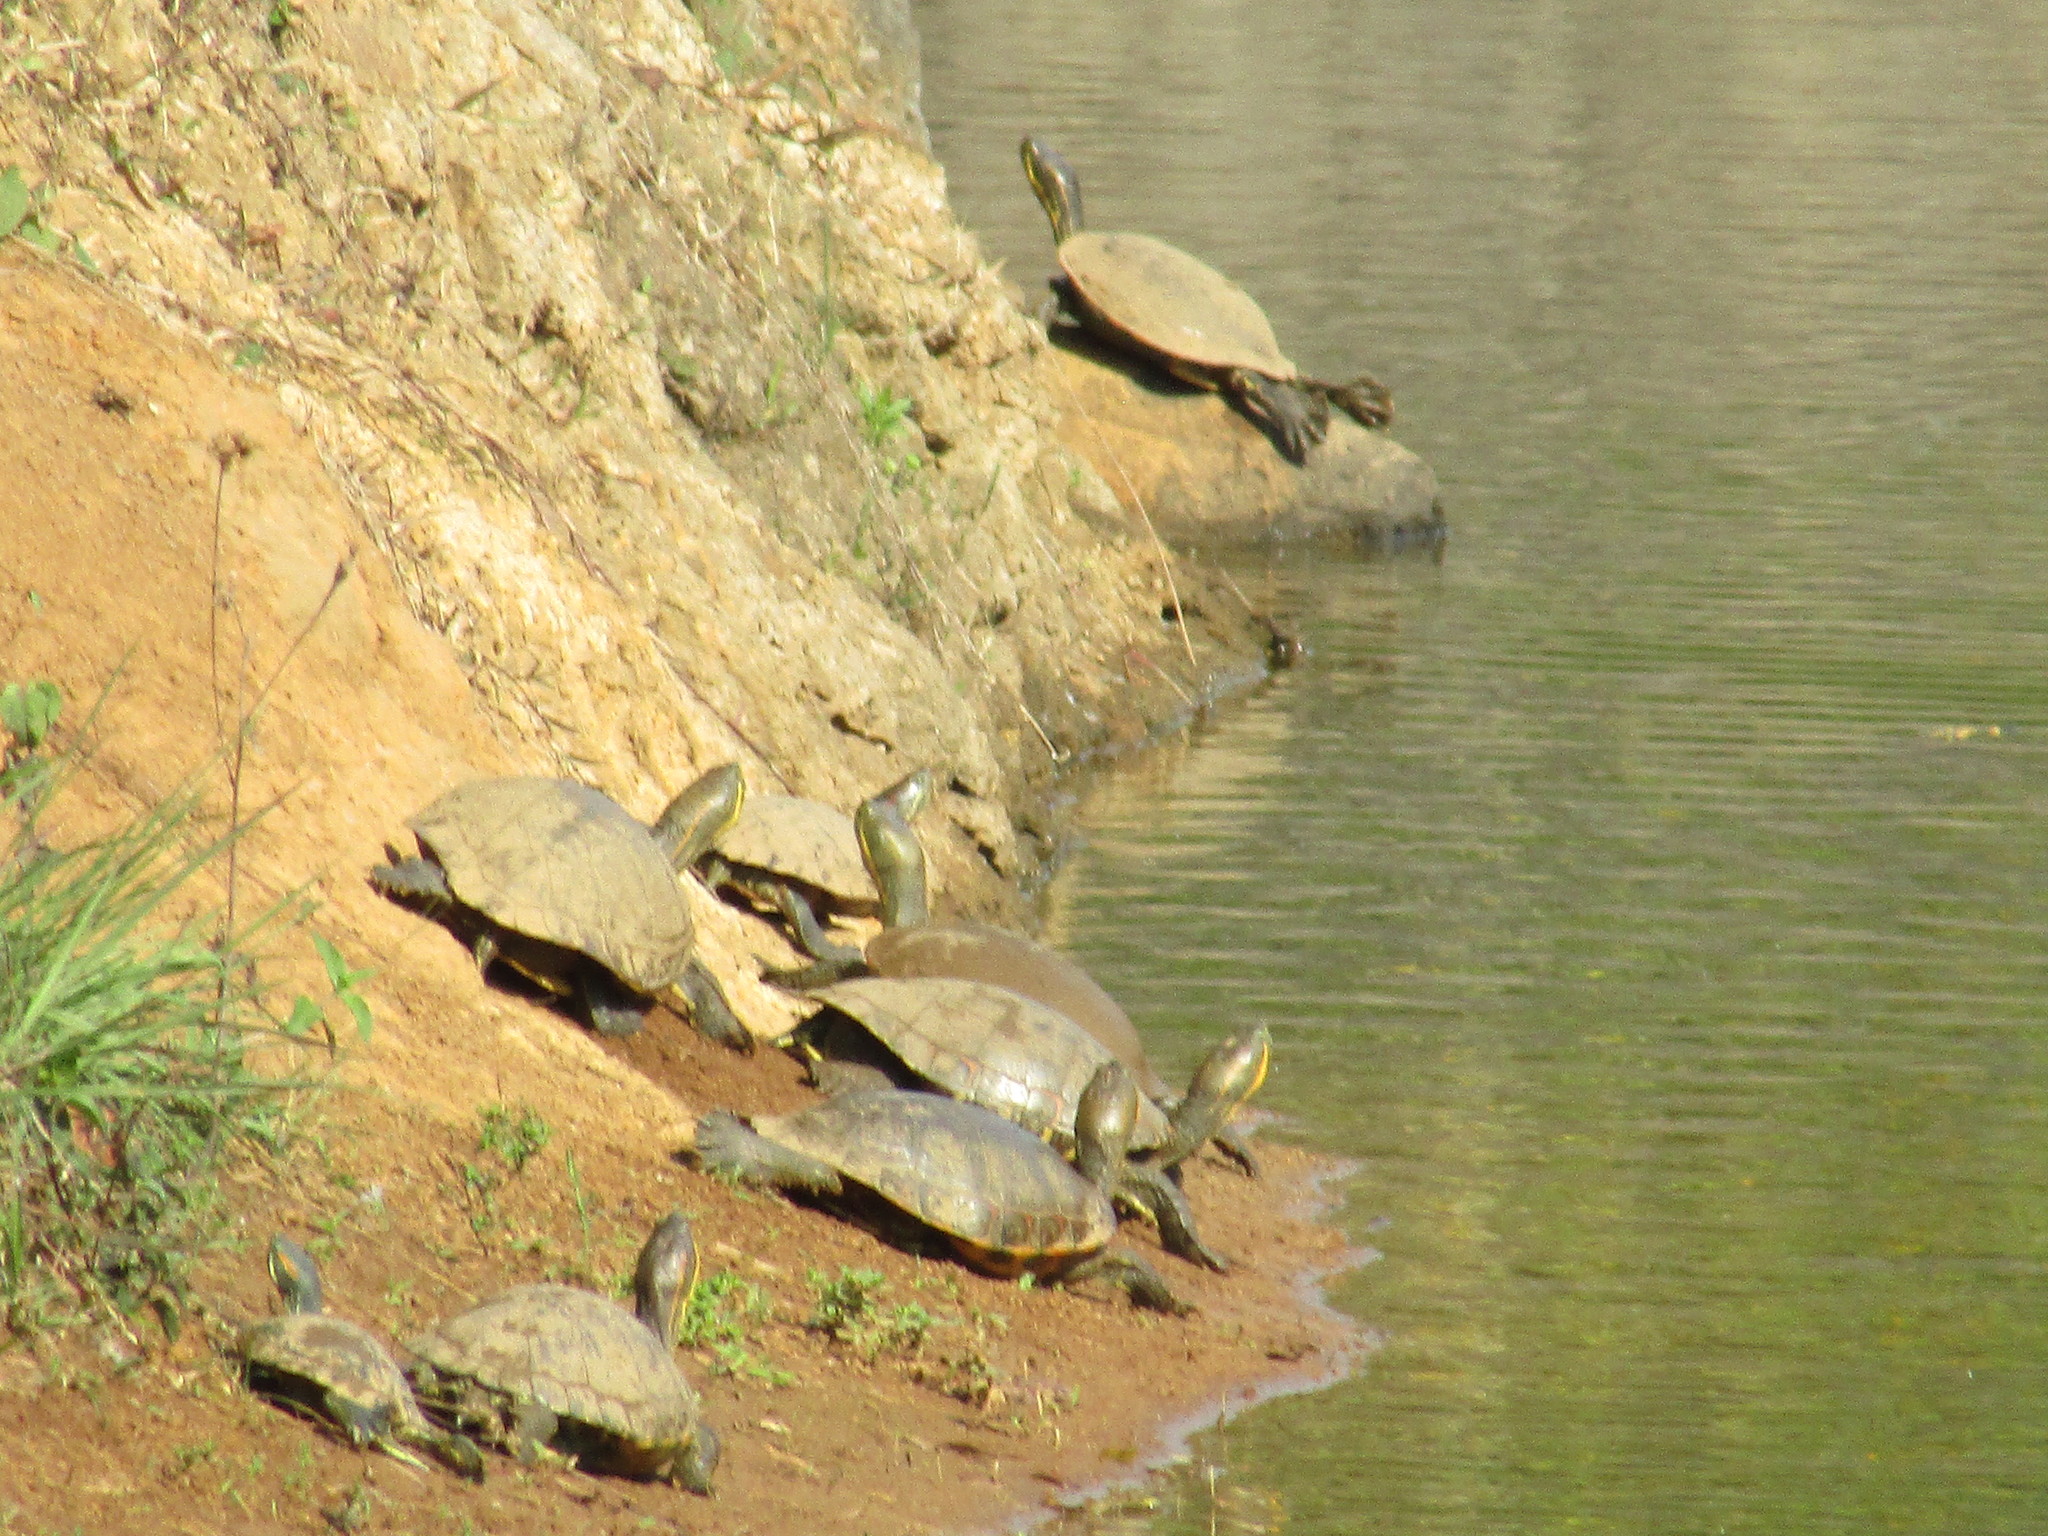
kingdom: Animalia
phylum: Chordata
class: Testudines
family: Emydidae
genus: Trachemys
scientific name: Trachemys venusta
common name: Mesoamerican slider
